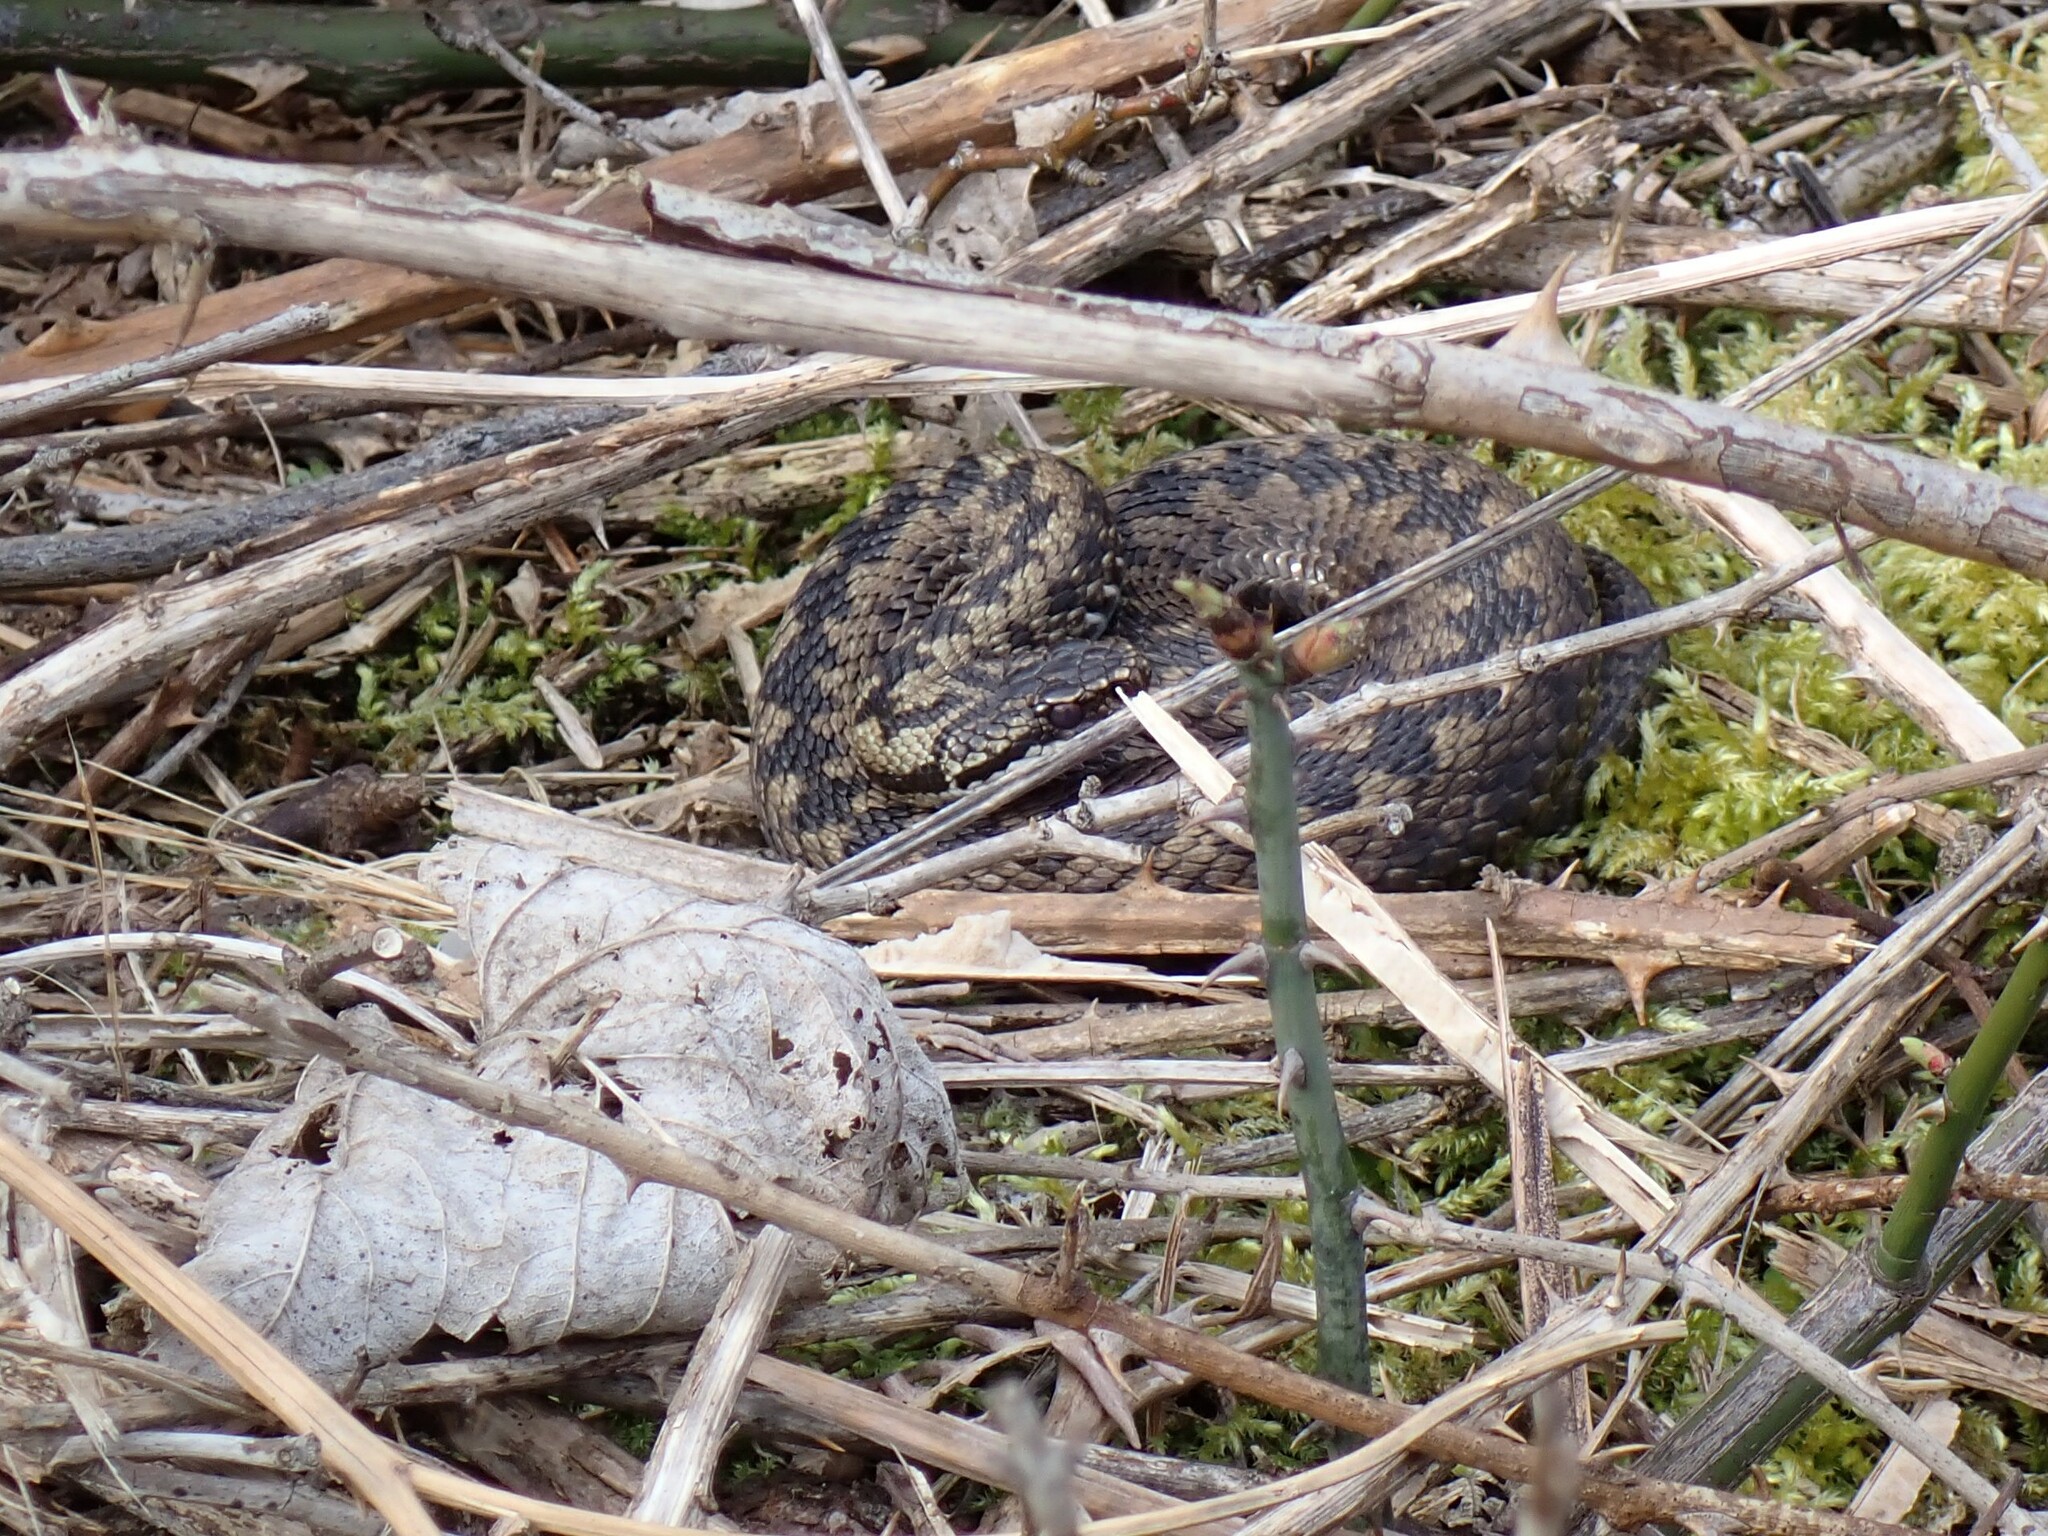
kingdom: Animalia
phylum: Chordata
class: Squamata
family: Viperidae
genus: Vipera
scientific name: Vipera berus
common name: Adder
